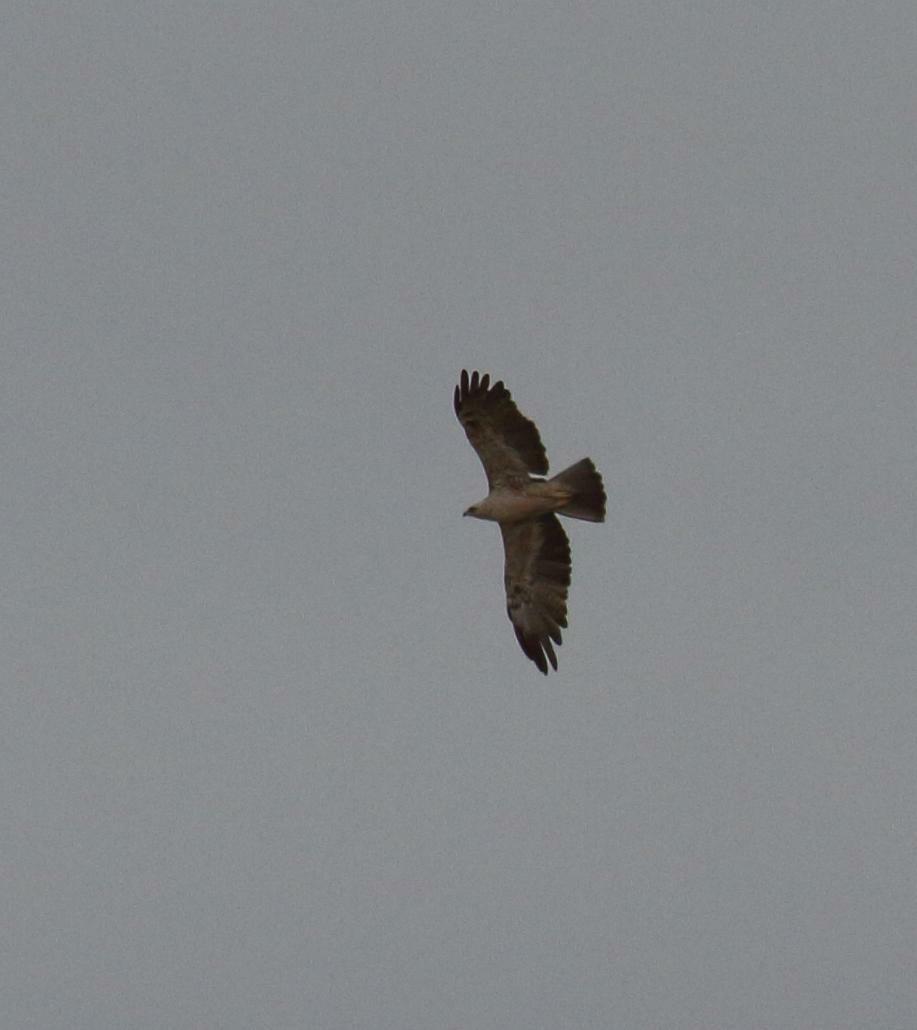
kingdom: Animalia
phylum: Chordata
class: Aves
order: Accipitriformes
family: Accipitridae
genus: Hieraaetus
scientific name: Hieraaetus wahlbergi
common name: Wahlberg's eagle
